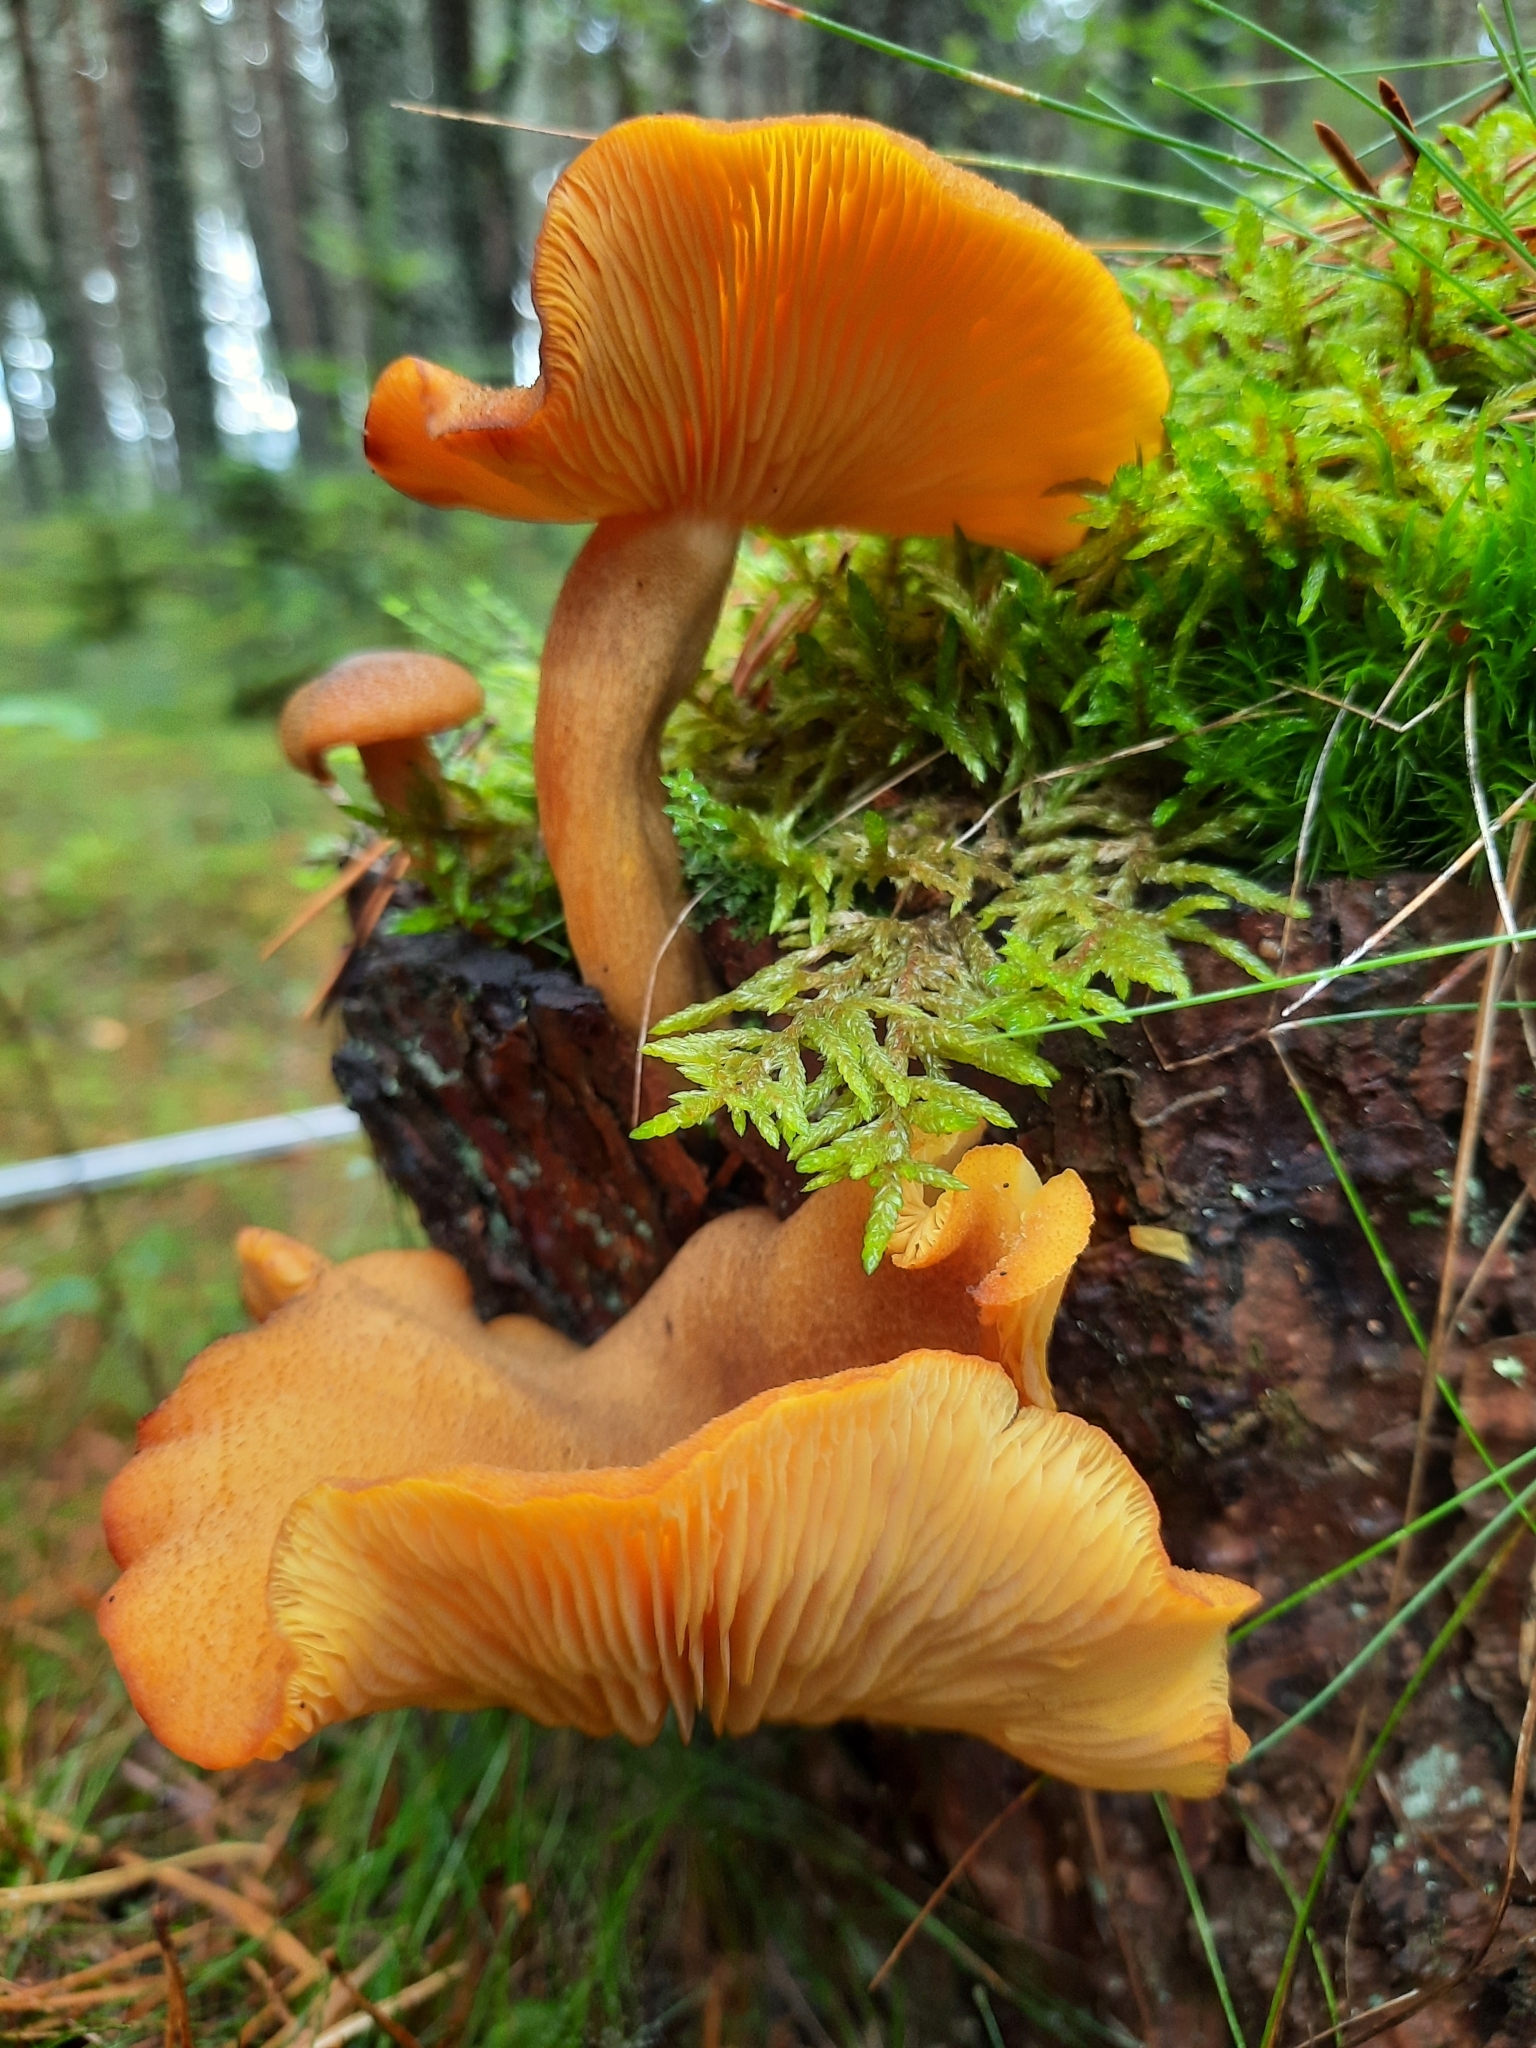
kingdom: Fungi
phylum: Basidiomycota
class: Agaricomycetes
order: Agaricales
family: Tricholomataceae
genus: Tricholomopsis
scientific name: Tricholomopsis decora
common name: Prunes and custard
